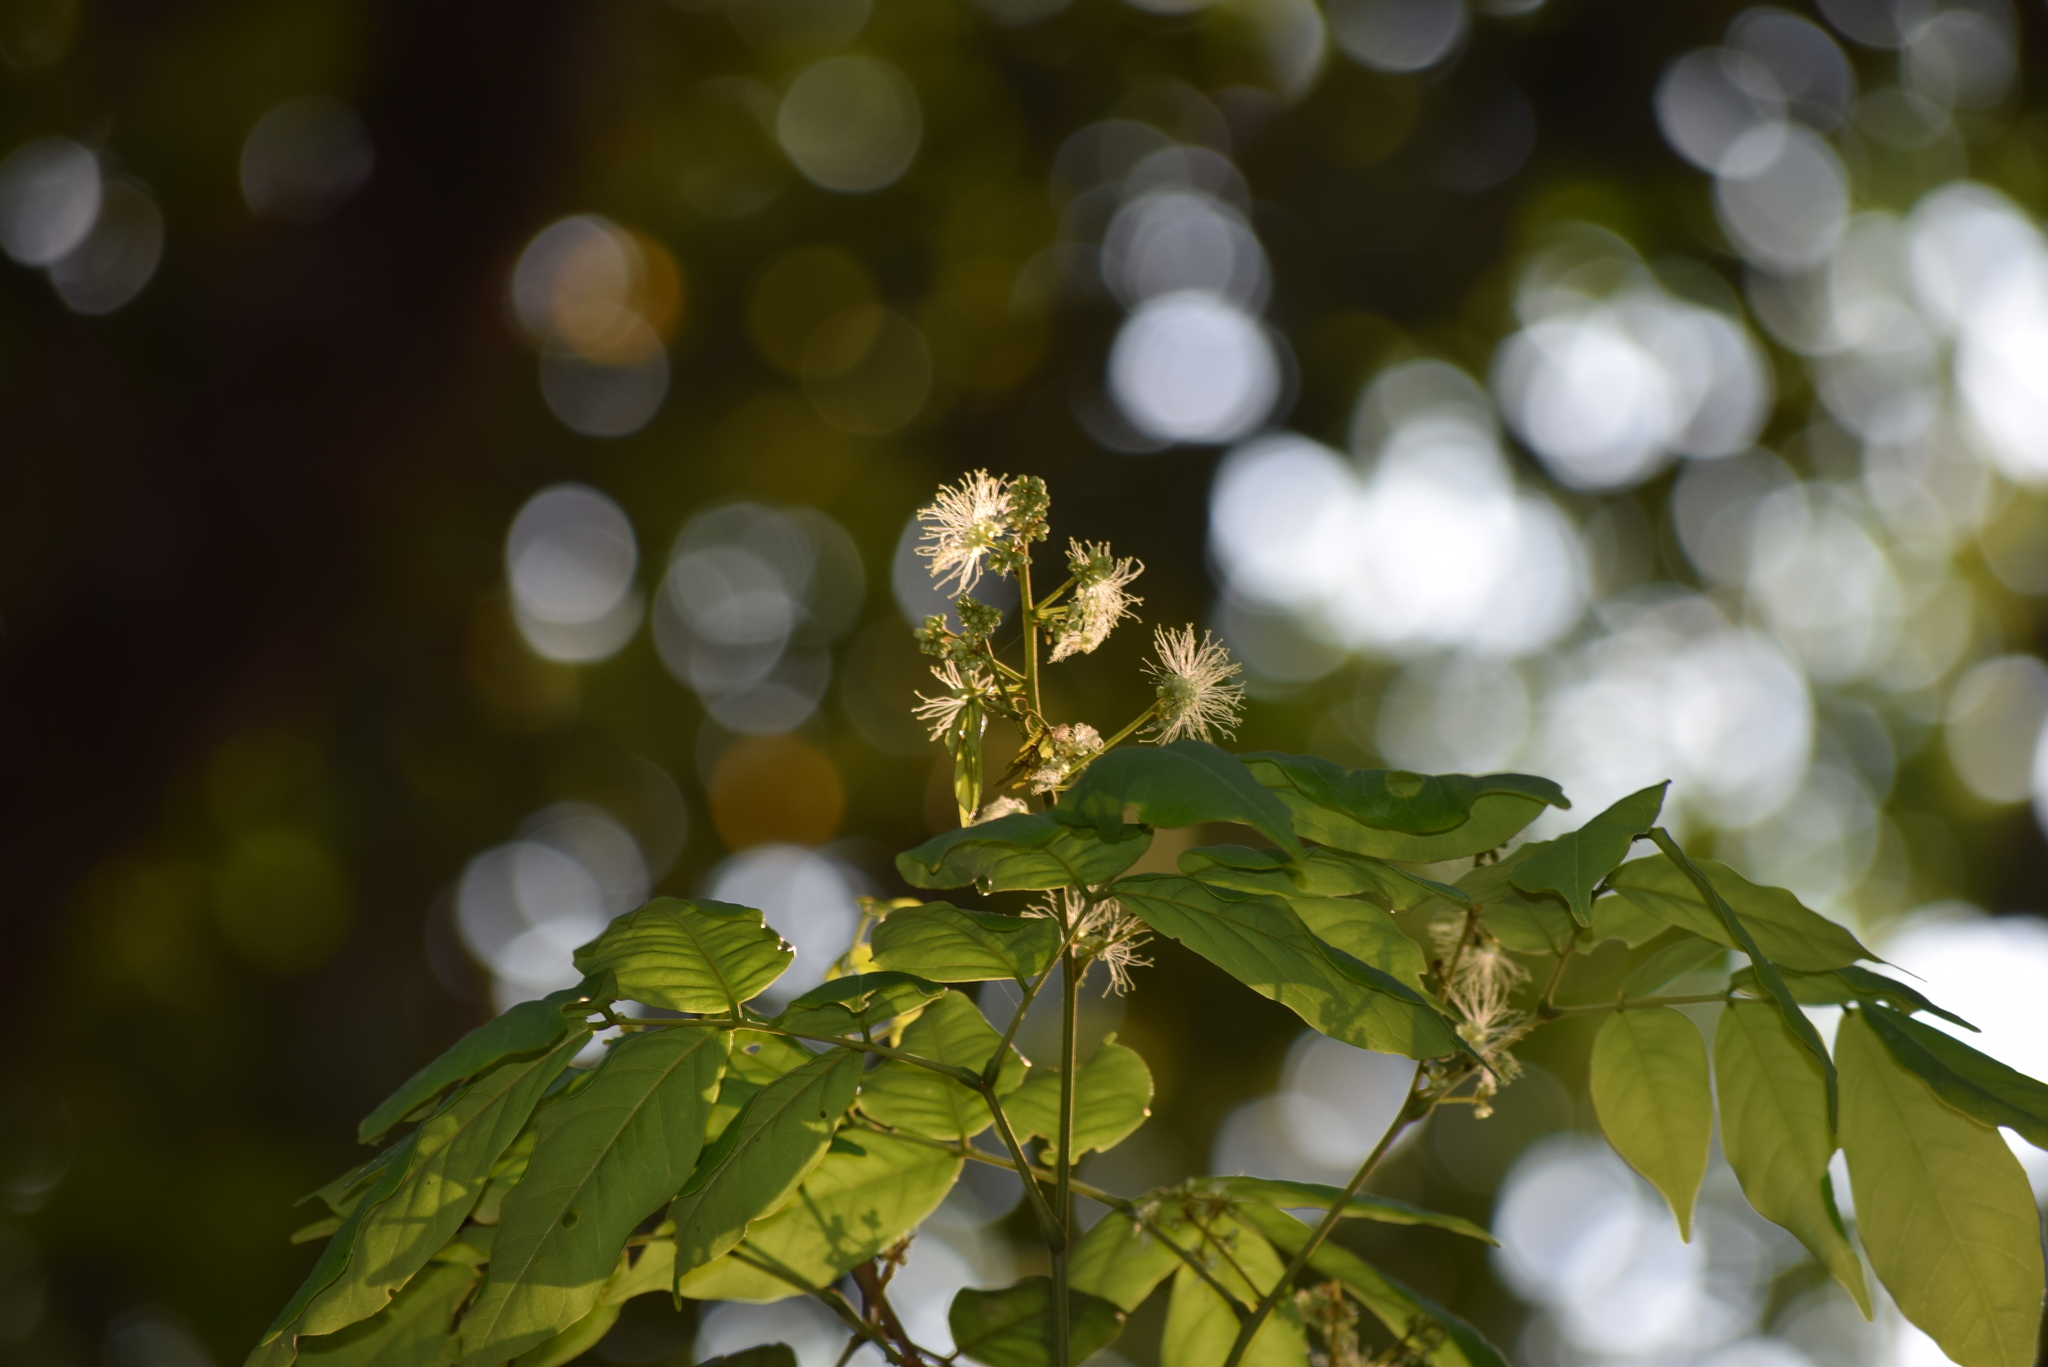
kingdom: Plantae
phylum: Tracheophyta
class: Magnoliopsida
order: Fabales
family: Fabaceae
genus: Archidendron
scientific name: Archidendron bigeminum
